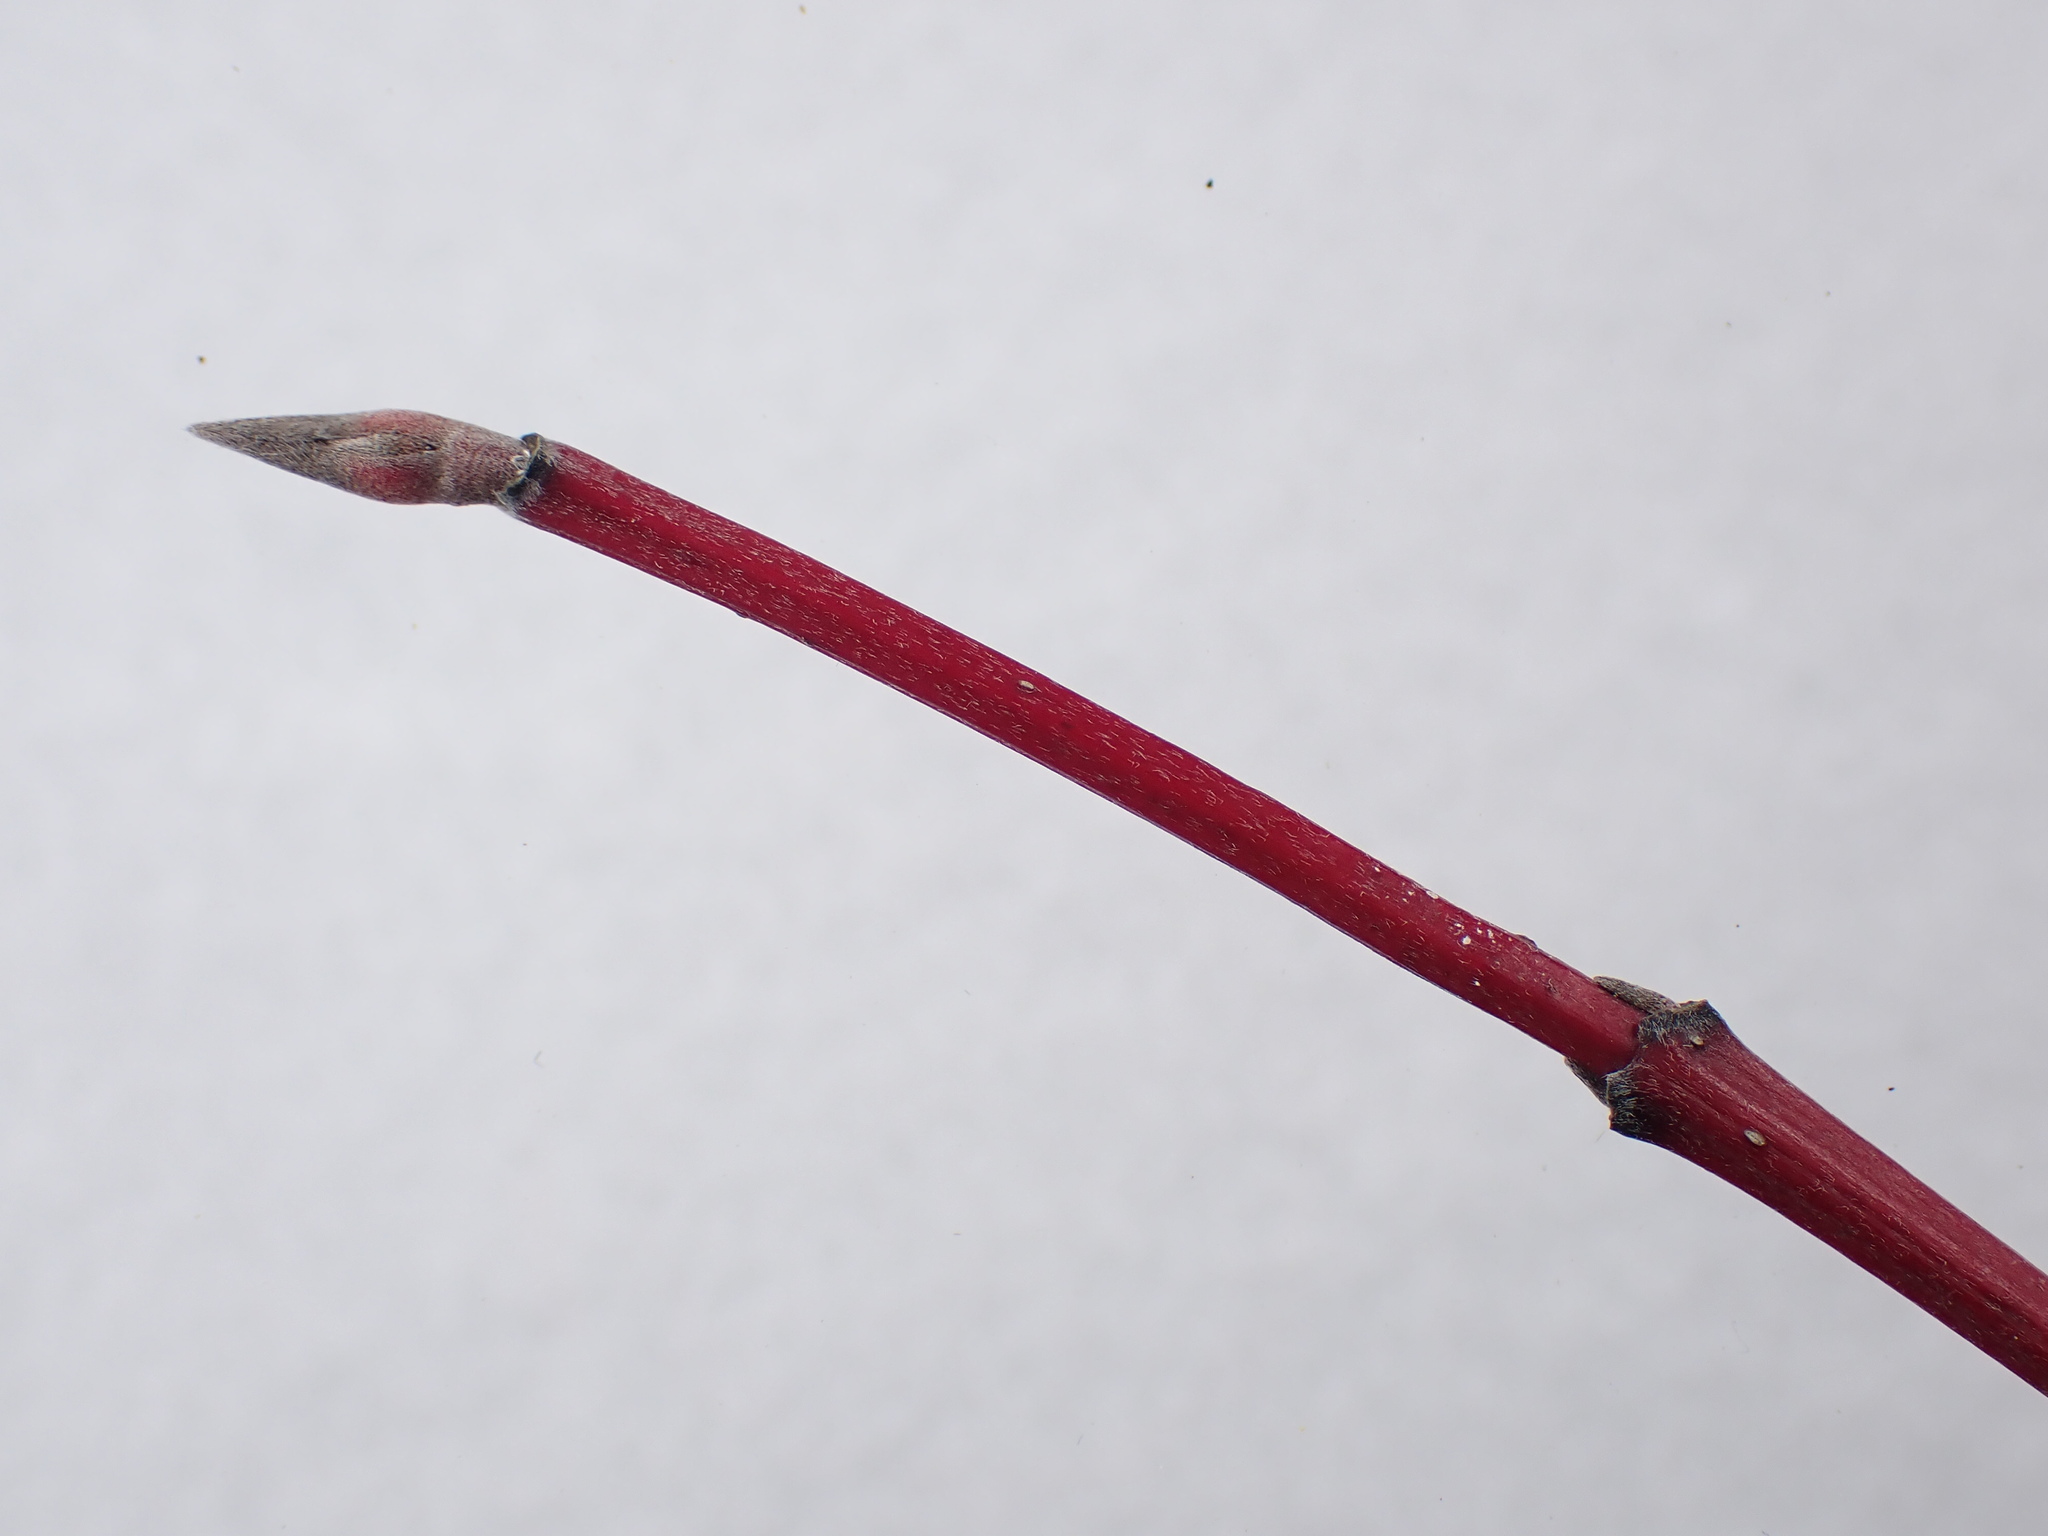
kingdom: Plantae
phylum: Tracheophyta
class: Magnoliopsida
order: Cornales
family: Cornaceae
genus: Cornus
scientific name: Cornus sericea
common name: Red-osier dogwood
